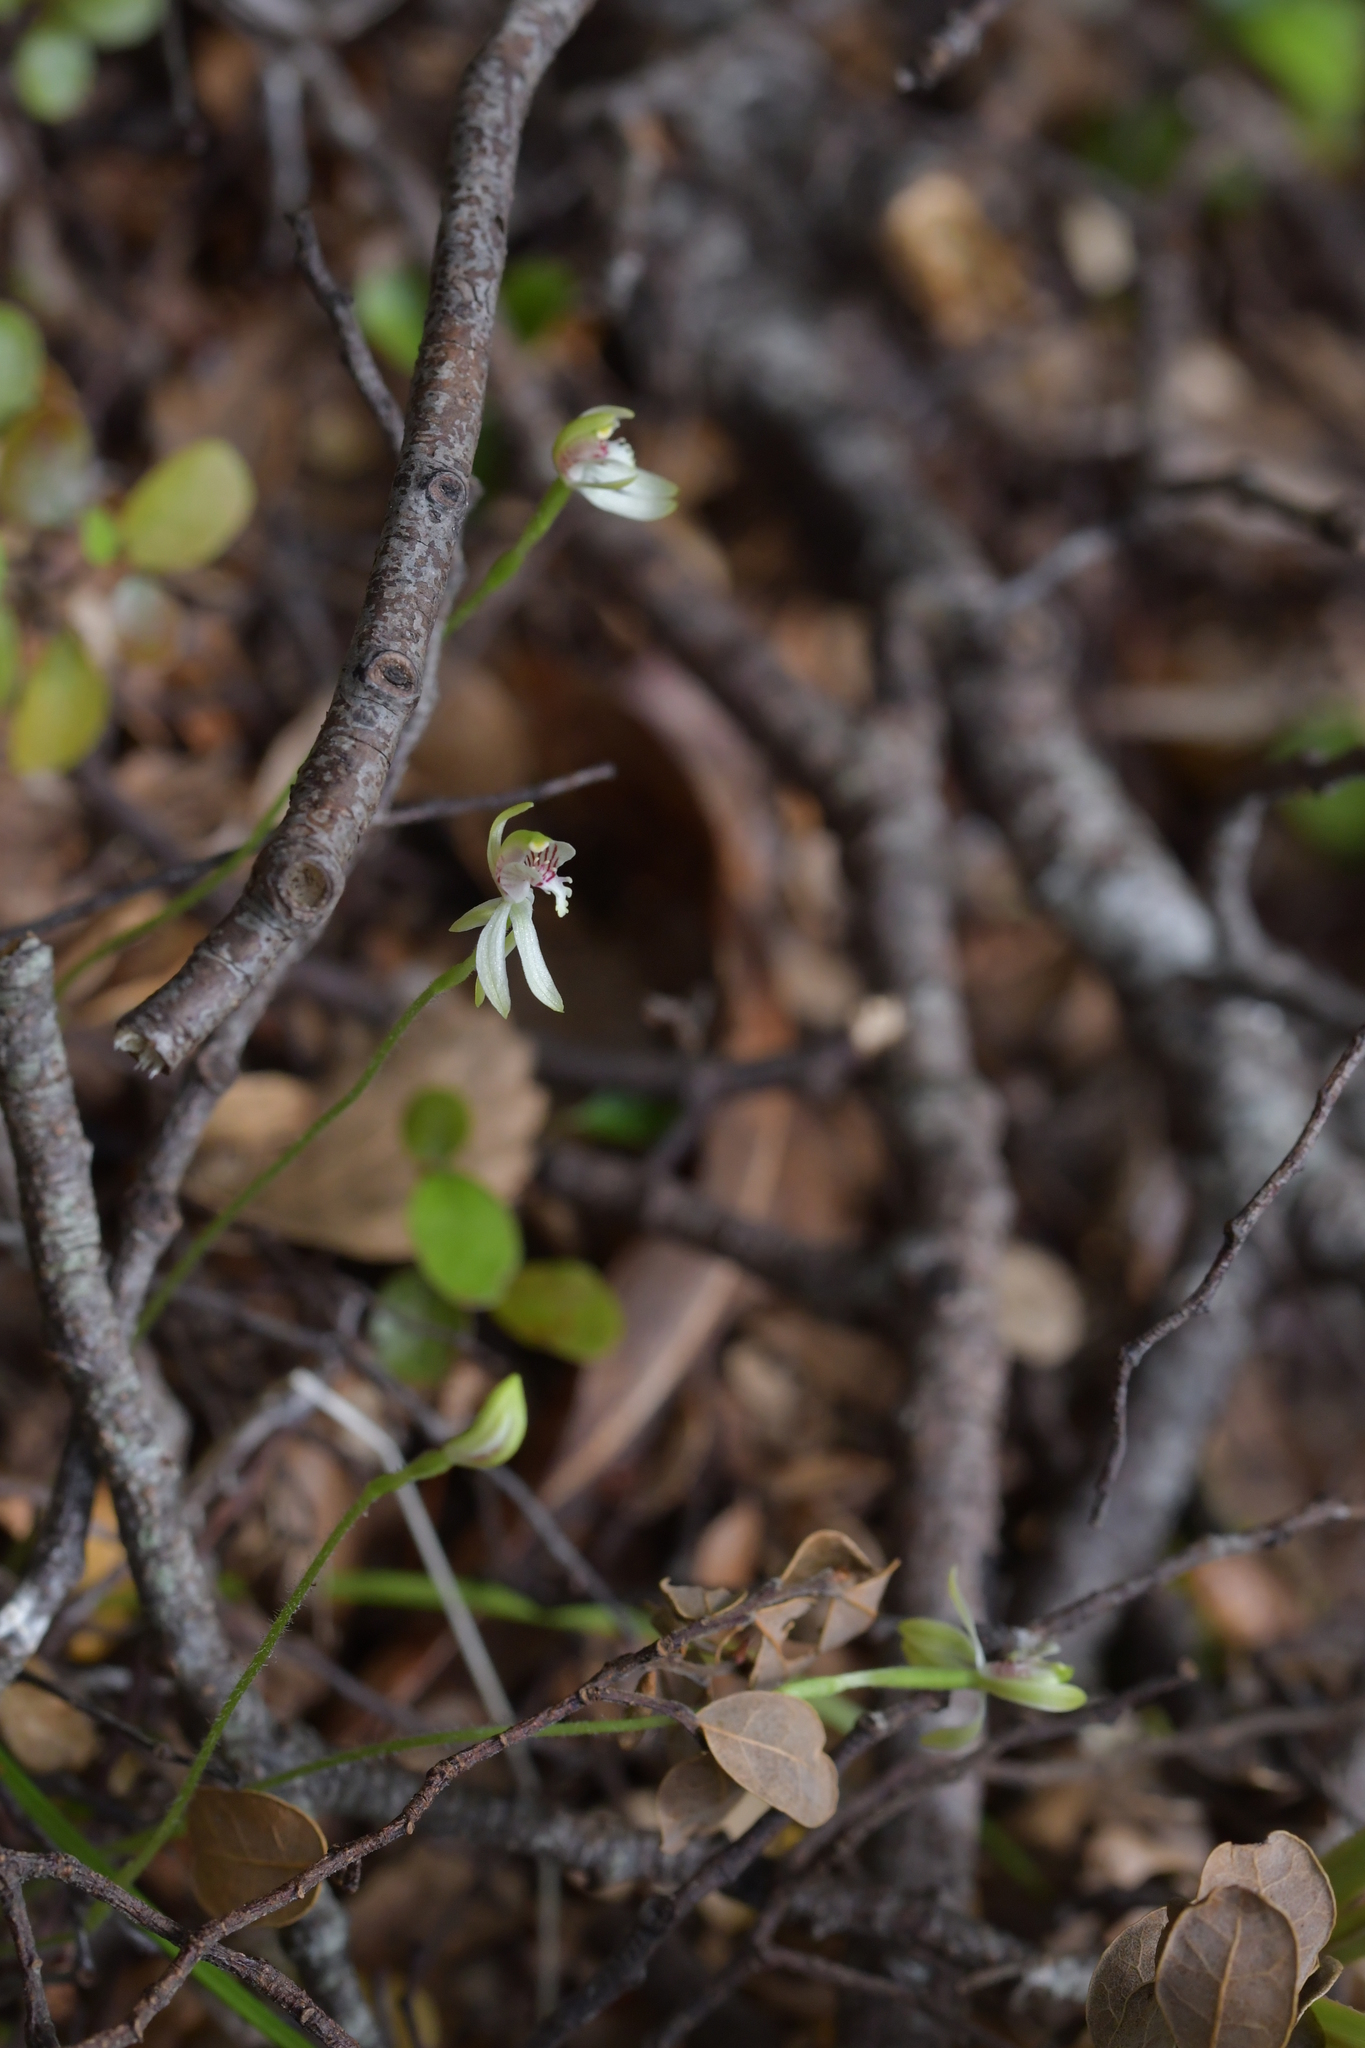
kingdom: Plantae
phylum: Tracheophyta
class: Liliopsida
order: Asparagales
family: Orchidaceae
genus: Caladenia
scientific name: Caladenia chlorostyla
